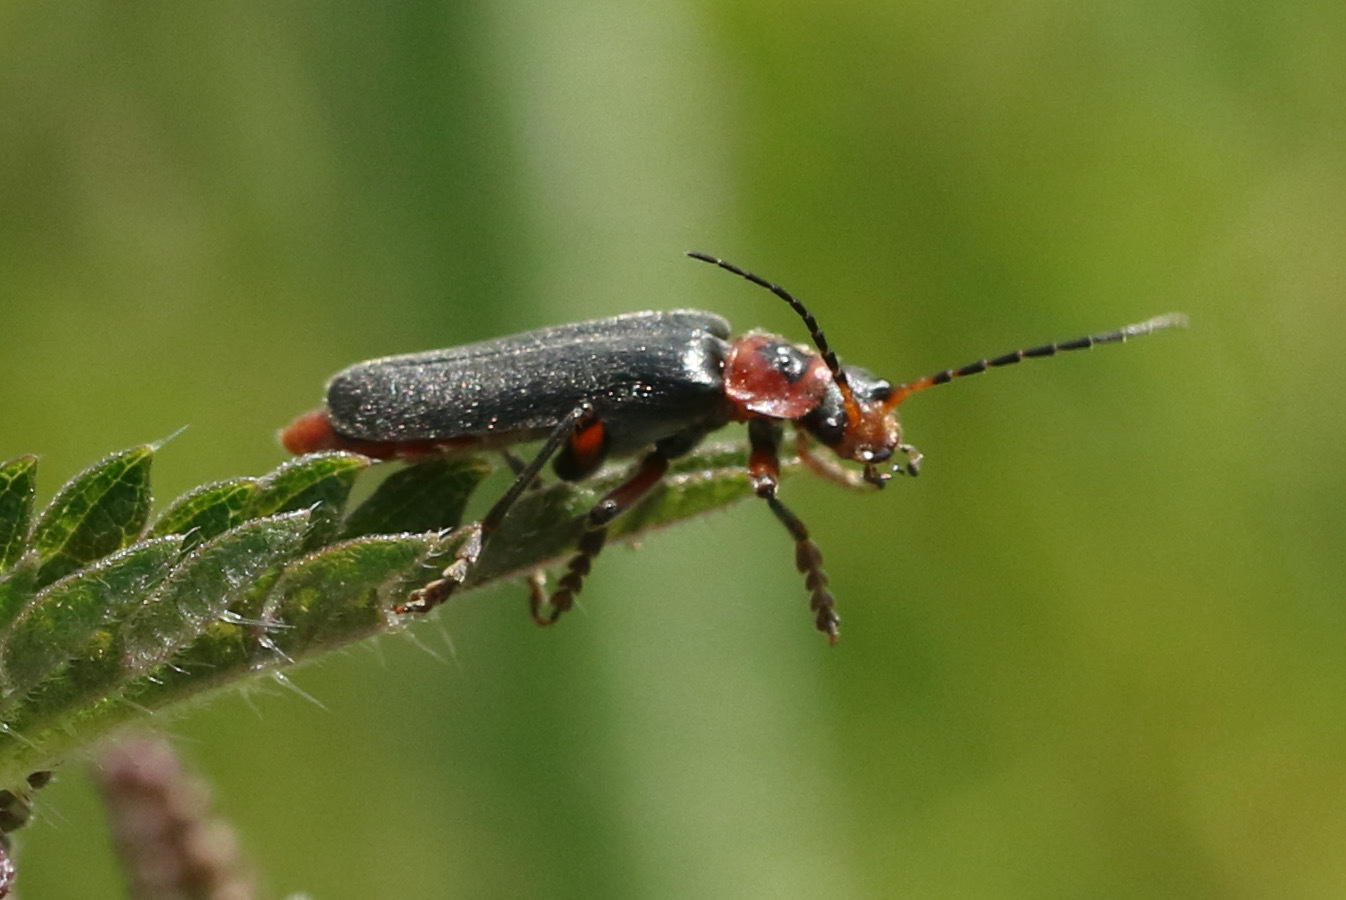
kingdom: Animalia
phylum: Arthropoda
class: Insecta
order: Coleoptera
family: Cantharidae
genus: Cantharis
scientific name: Cantharis rustica
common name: Soldier beetle
